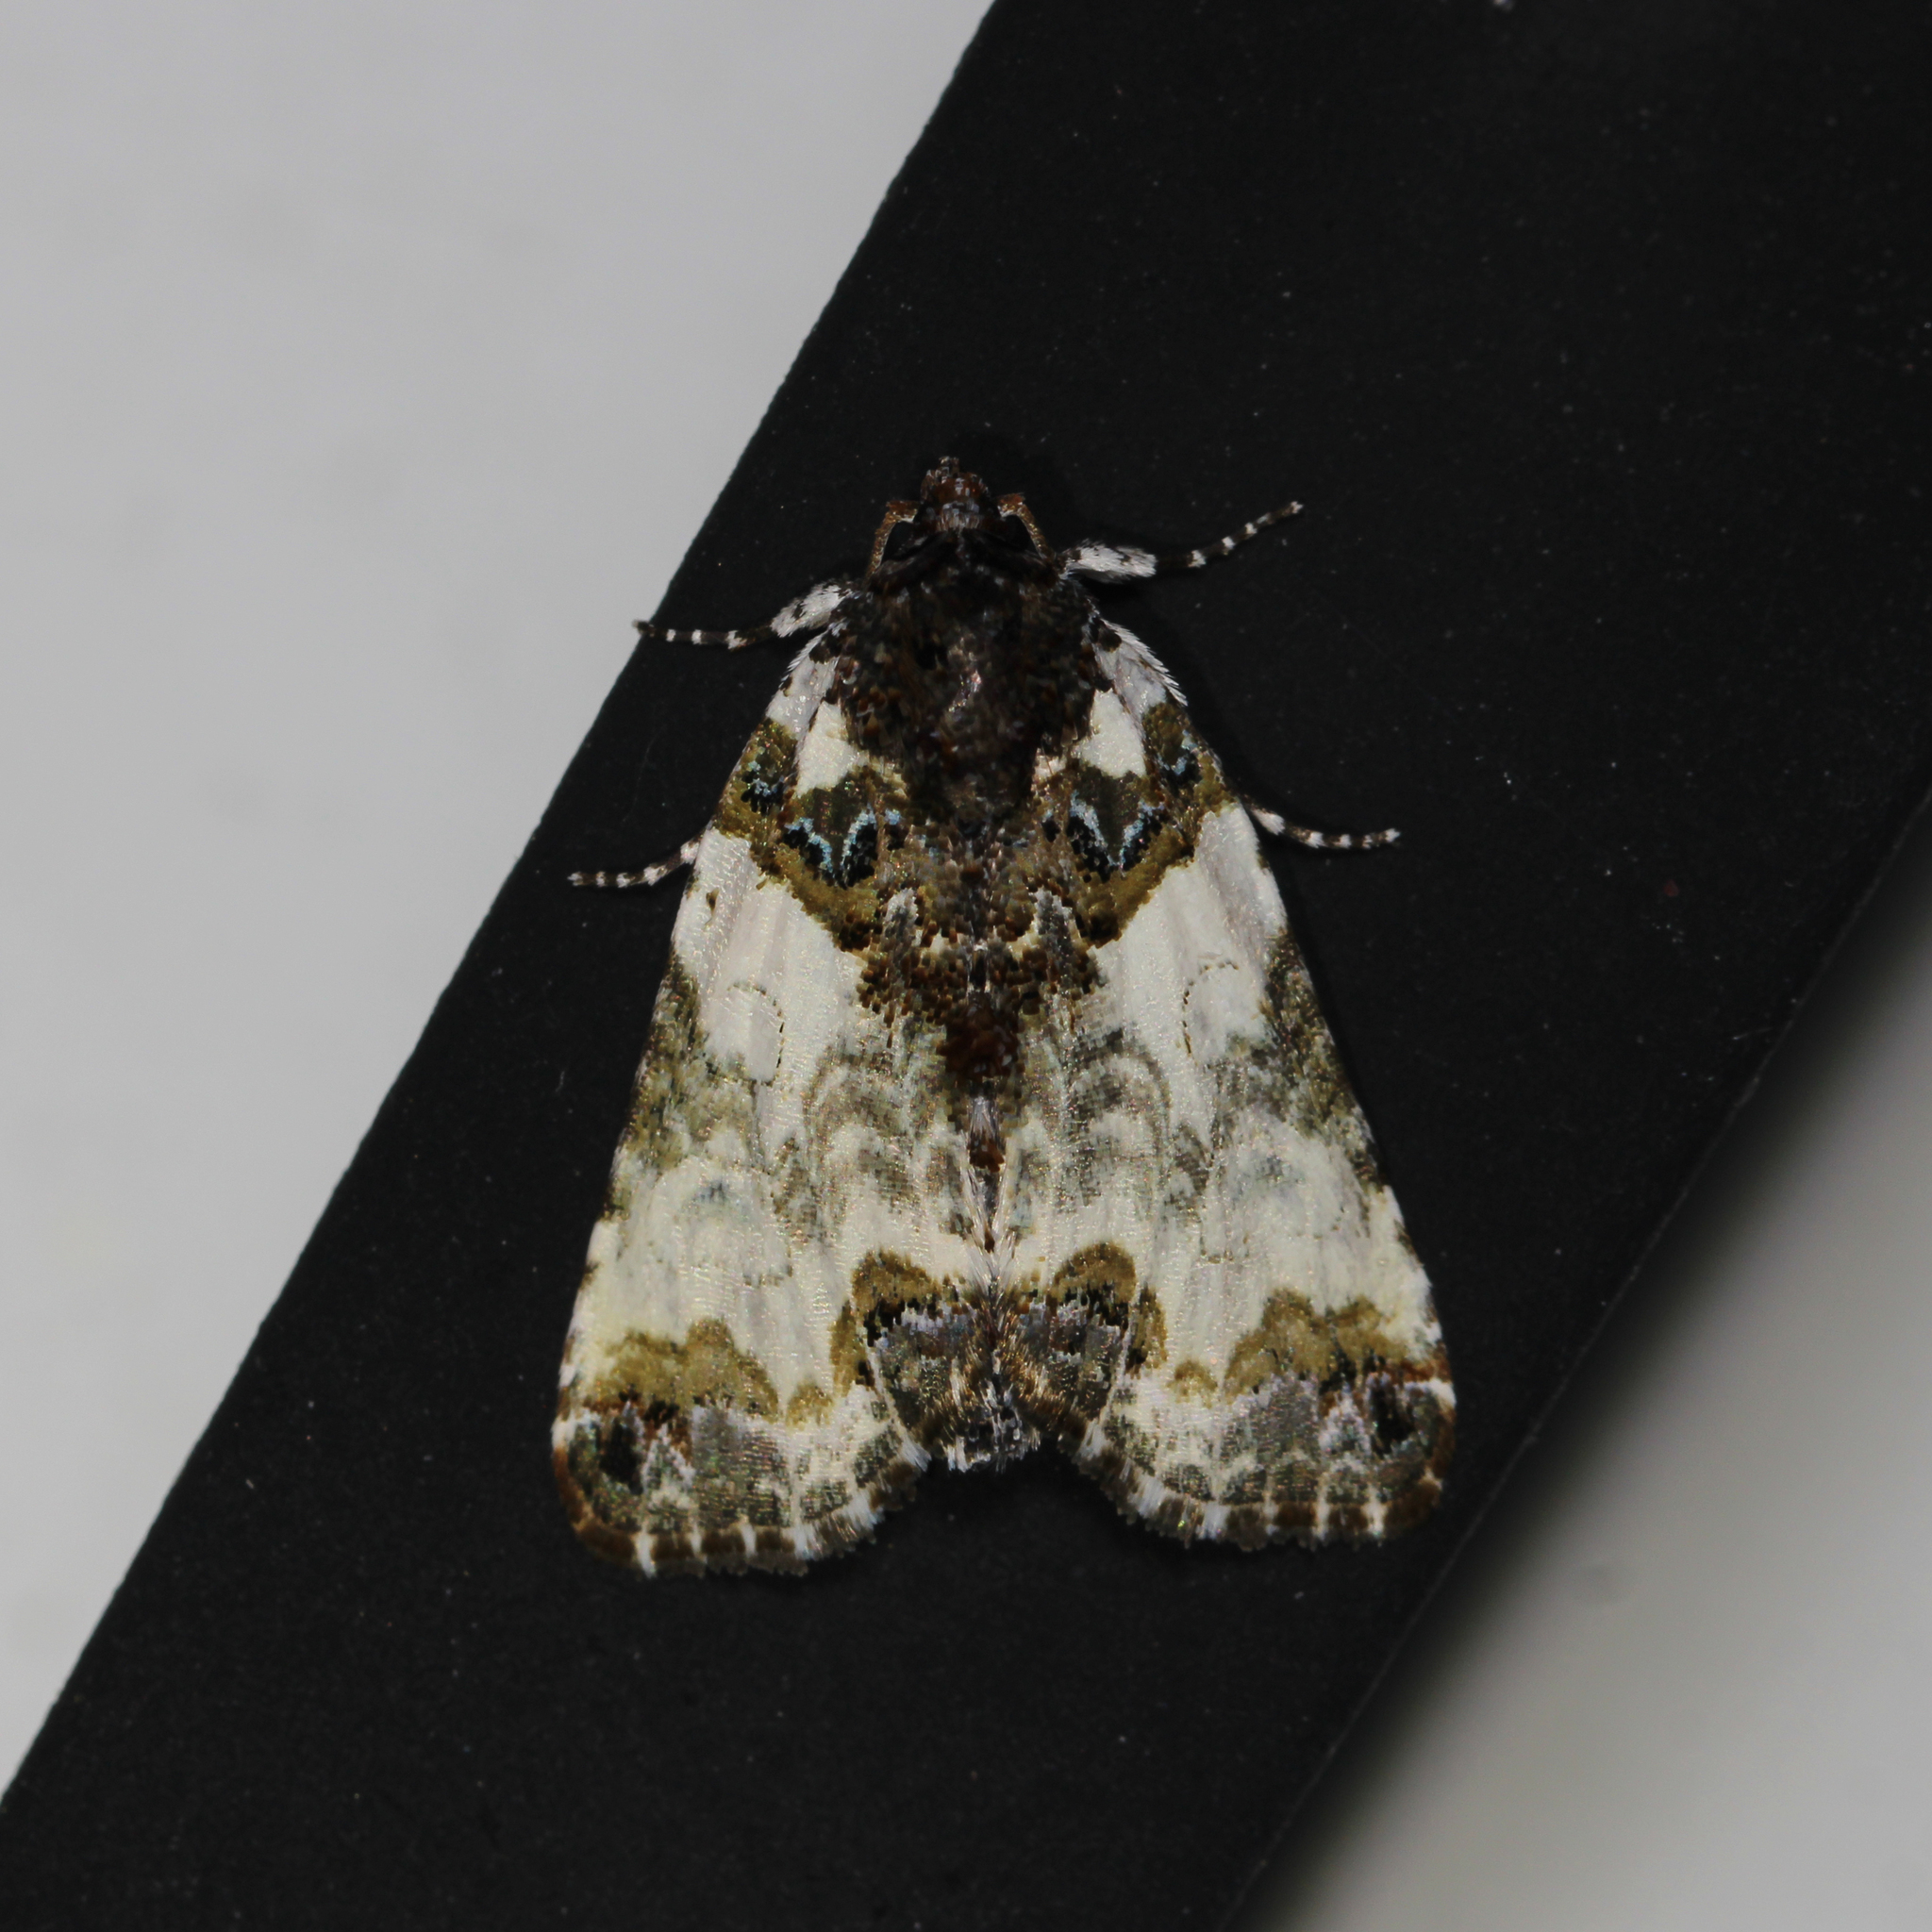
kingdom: Animalia
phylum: Arthropoda
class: Insecta
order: Lepidoptera
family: Noctuidae
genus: Cerma
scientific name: Cerma cerintha
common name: Tufted bird-dropping moth
